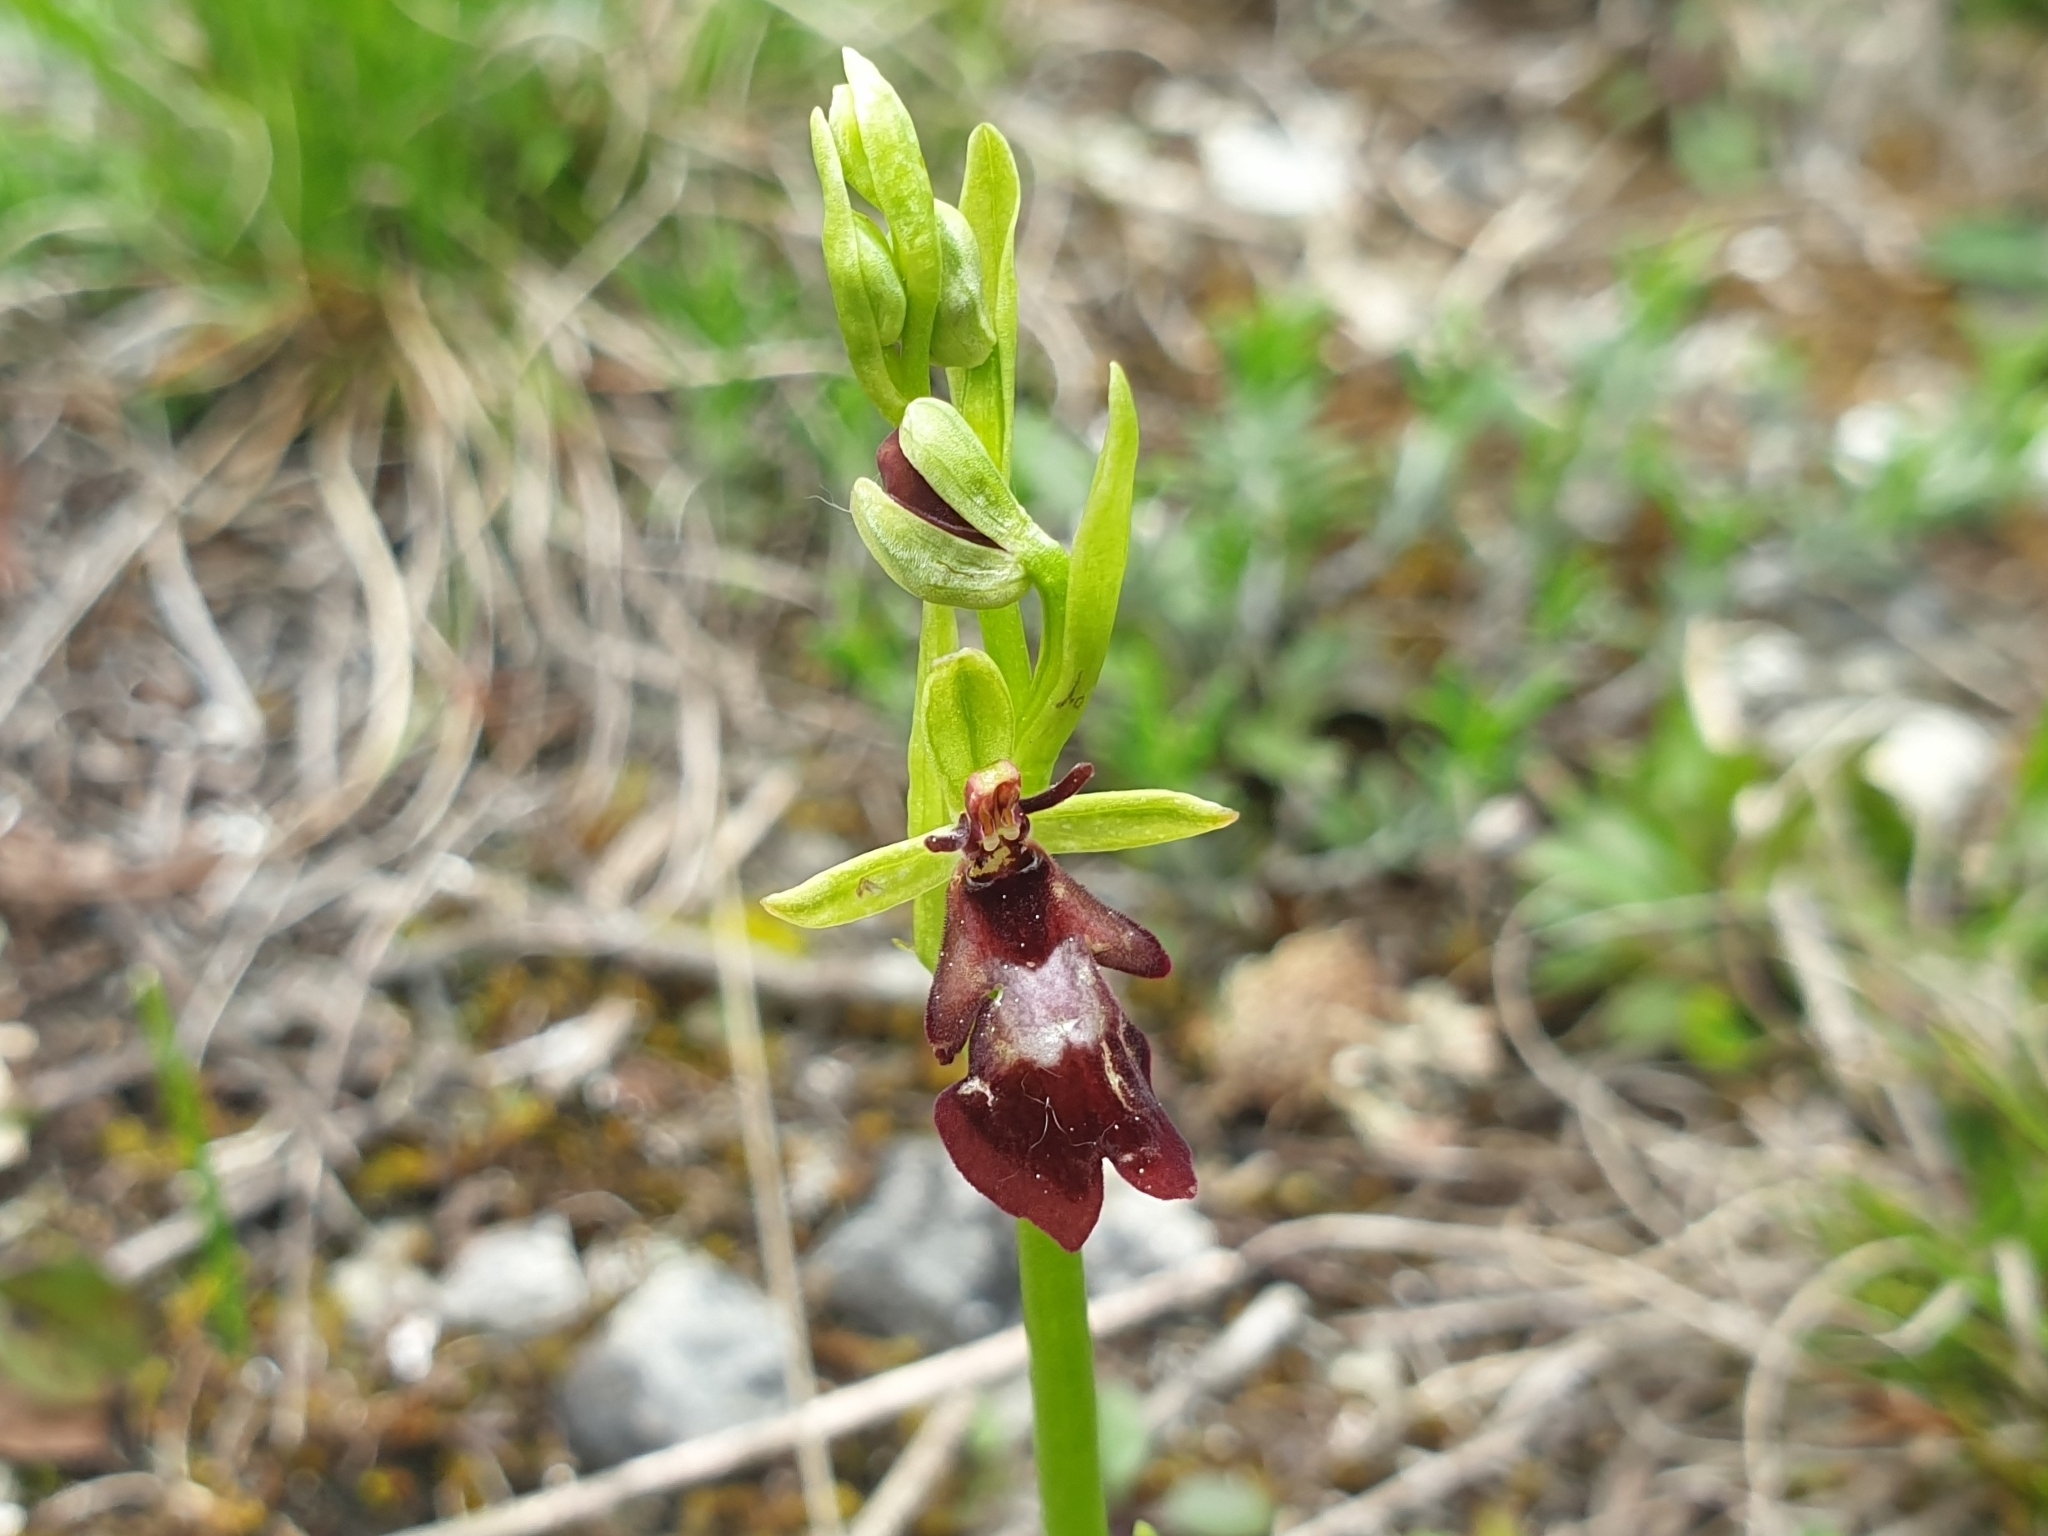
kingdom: Plantae
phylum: Tracheophyta
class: Liliopsida
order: Asparagales
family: Orchidaceae
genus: Ophrys
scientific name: Ophrys insectifera
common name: Fly orchid
